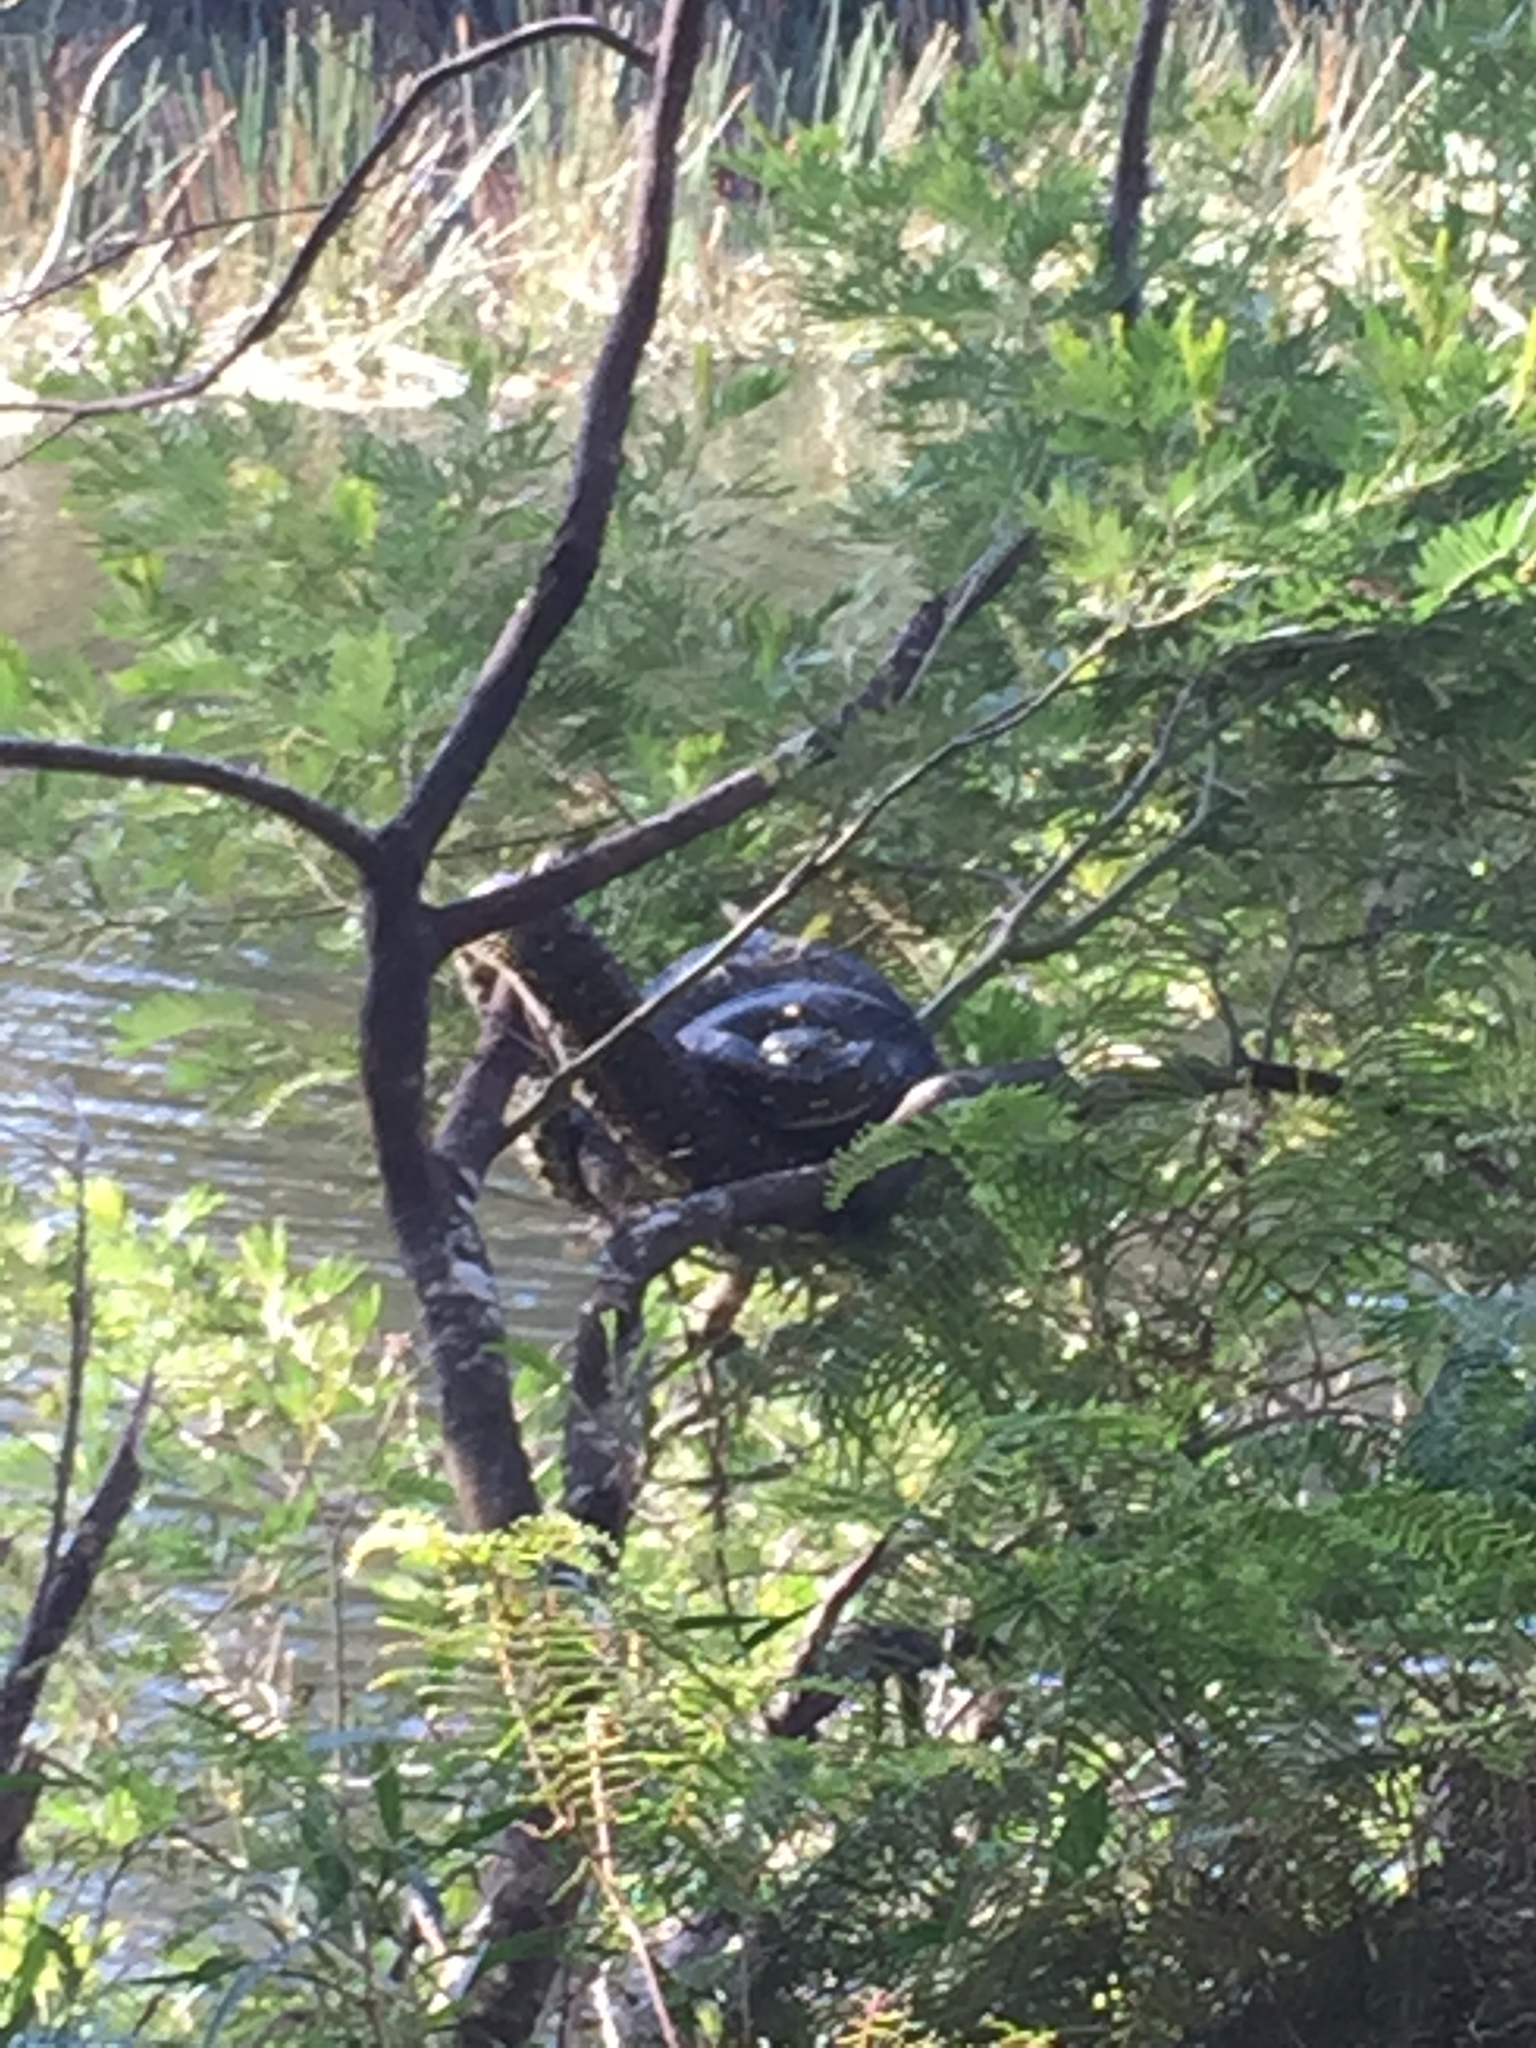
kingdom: Animalia
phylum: Chordata
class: Squamata
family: Pythonidae
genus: Morelia
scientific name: Morelia spilota
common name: Carpet python
